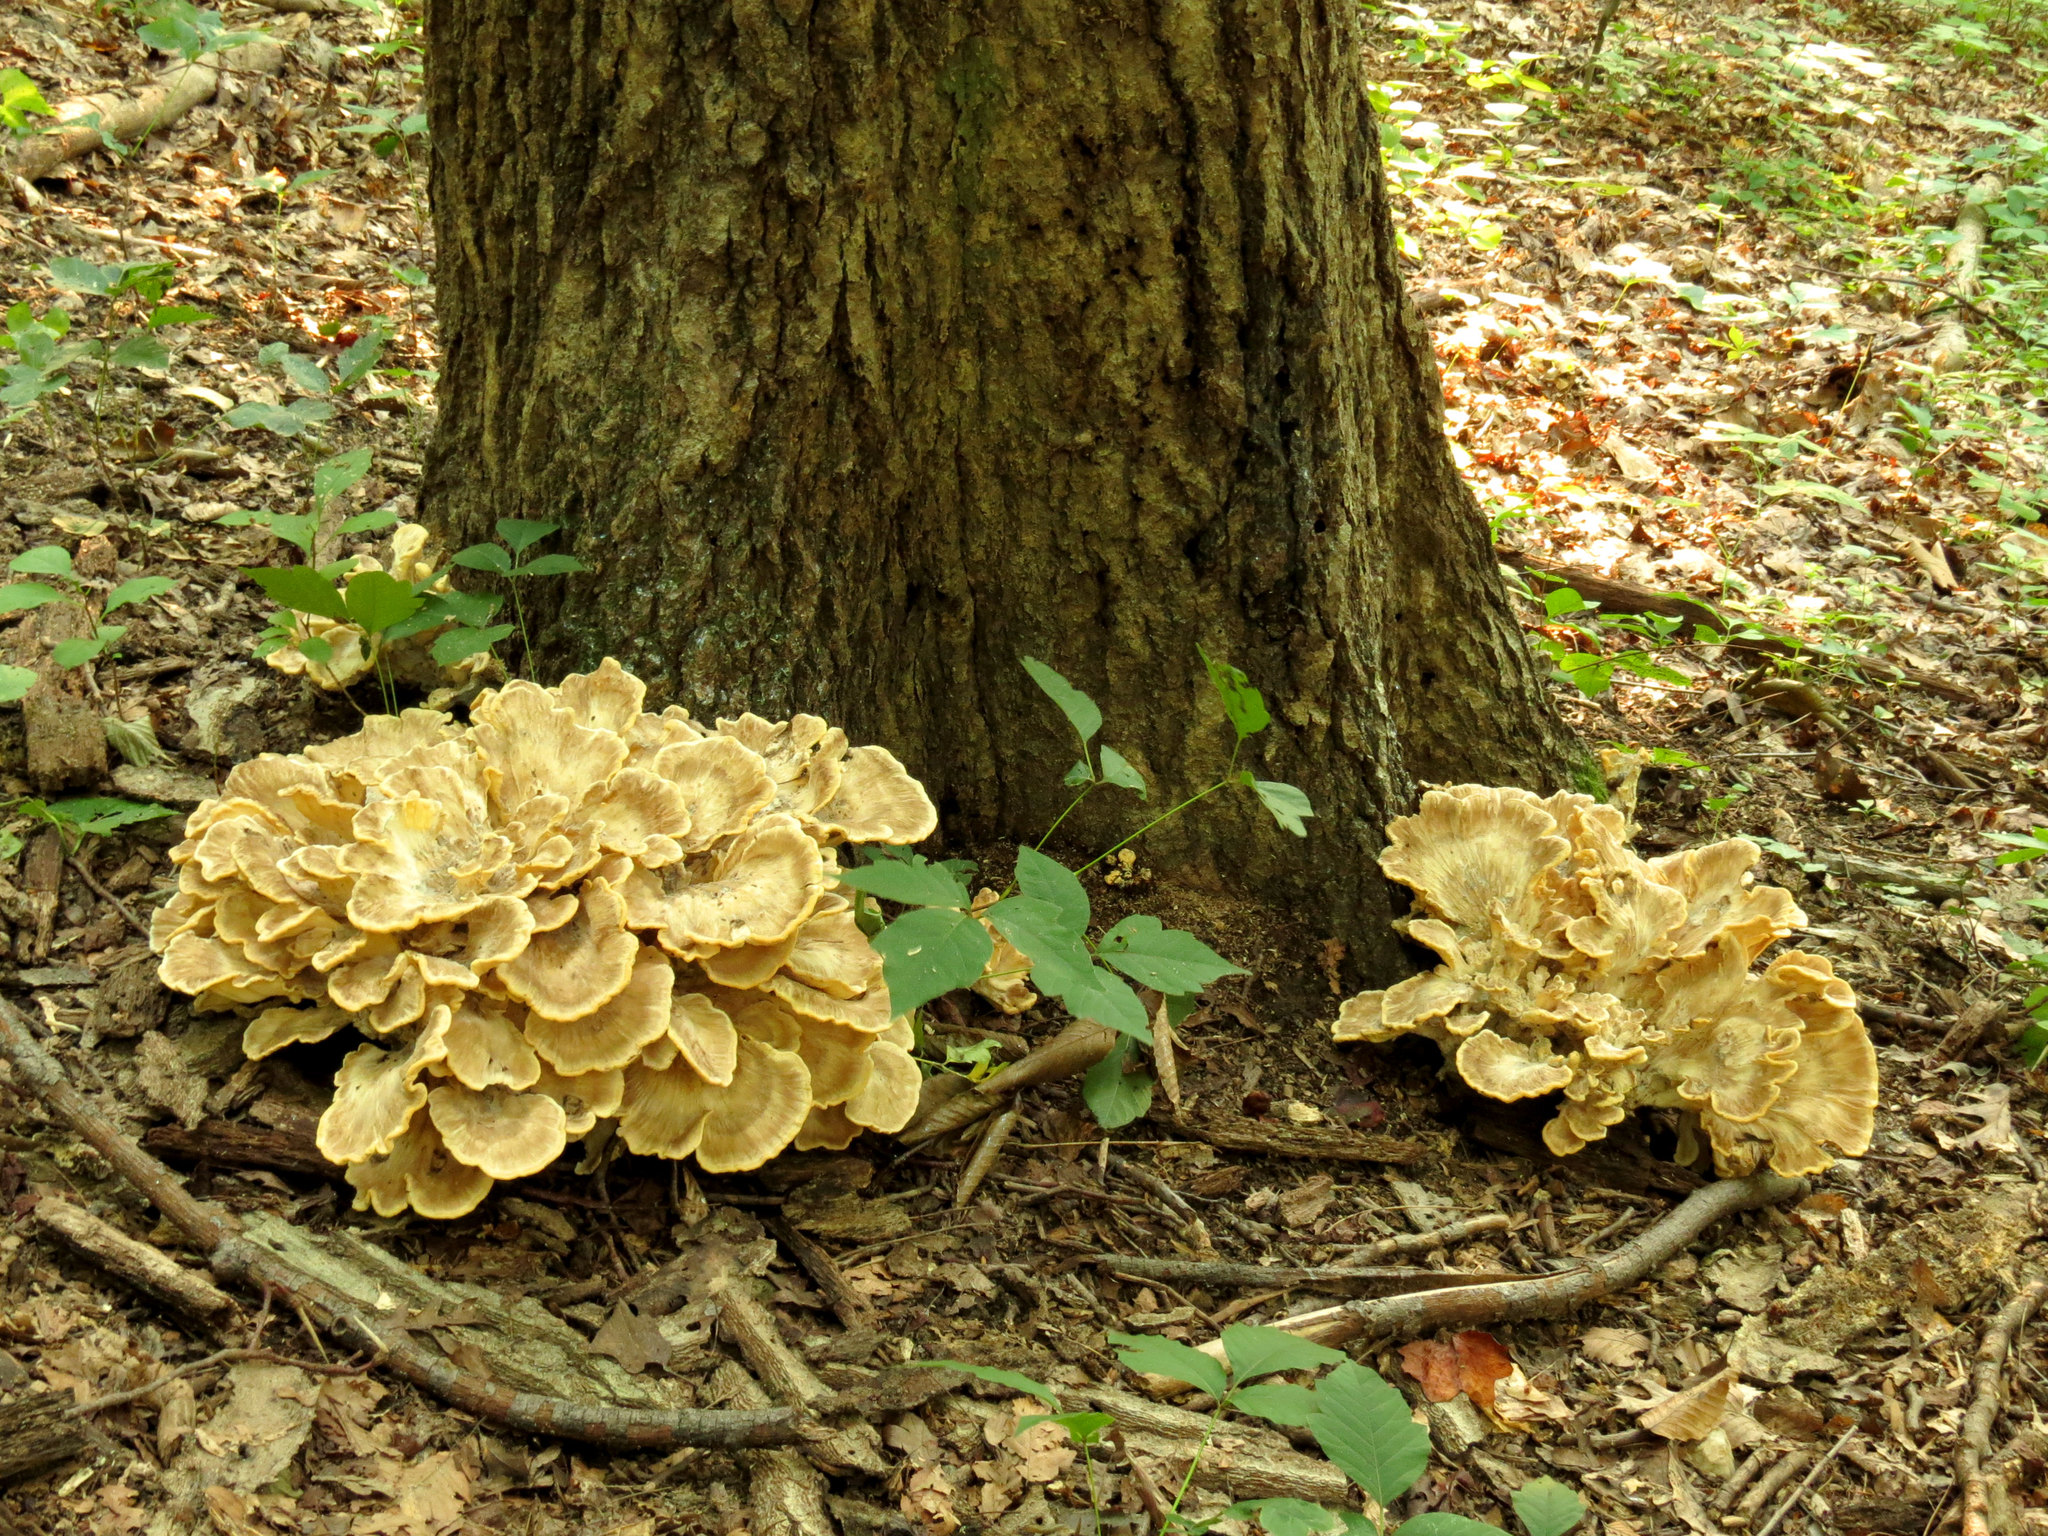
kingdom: Fungi
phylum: Basidiomycota
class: Agaricomycetes
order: Polyporales
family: Meripilaceae
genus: Meripilus
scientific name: Meripilus sumstinei
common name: Black-staining polypore
